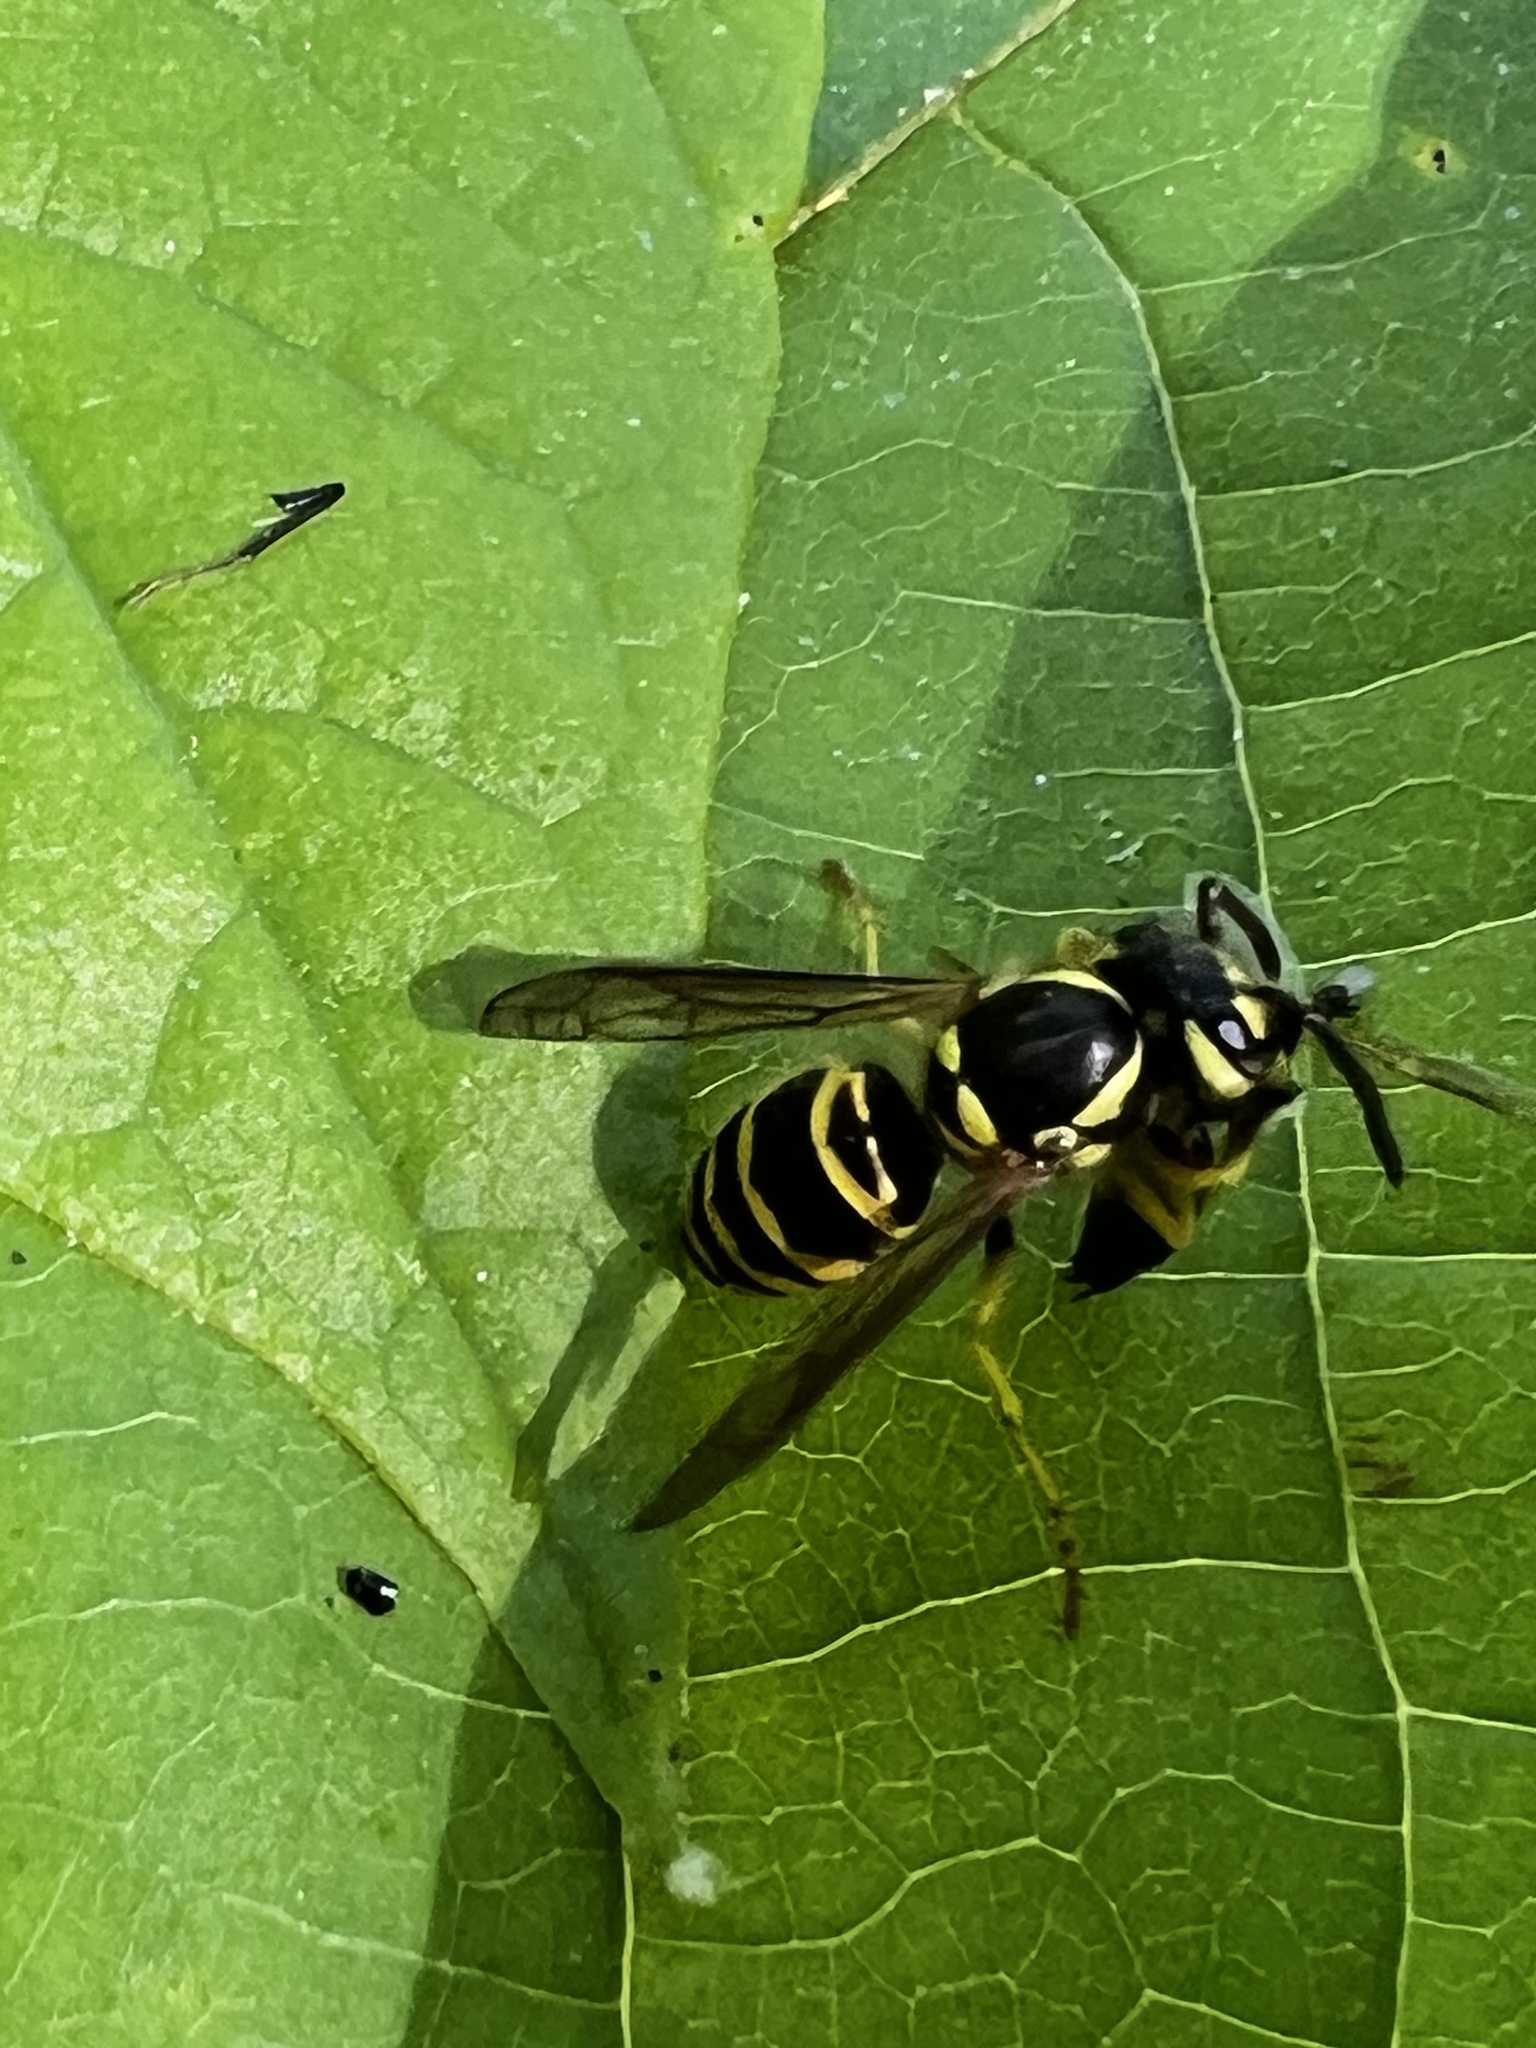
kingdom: Animalia
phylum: Arthropoda
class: Insecta
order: Hymenoptera
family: Vespidae
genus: Vespula
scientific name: Vespula maculifrons
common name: Eastern yellowjacket
